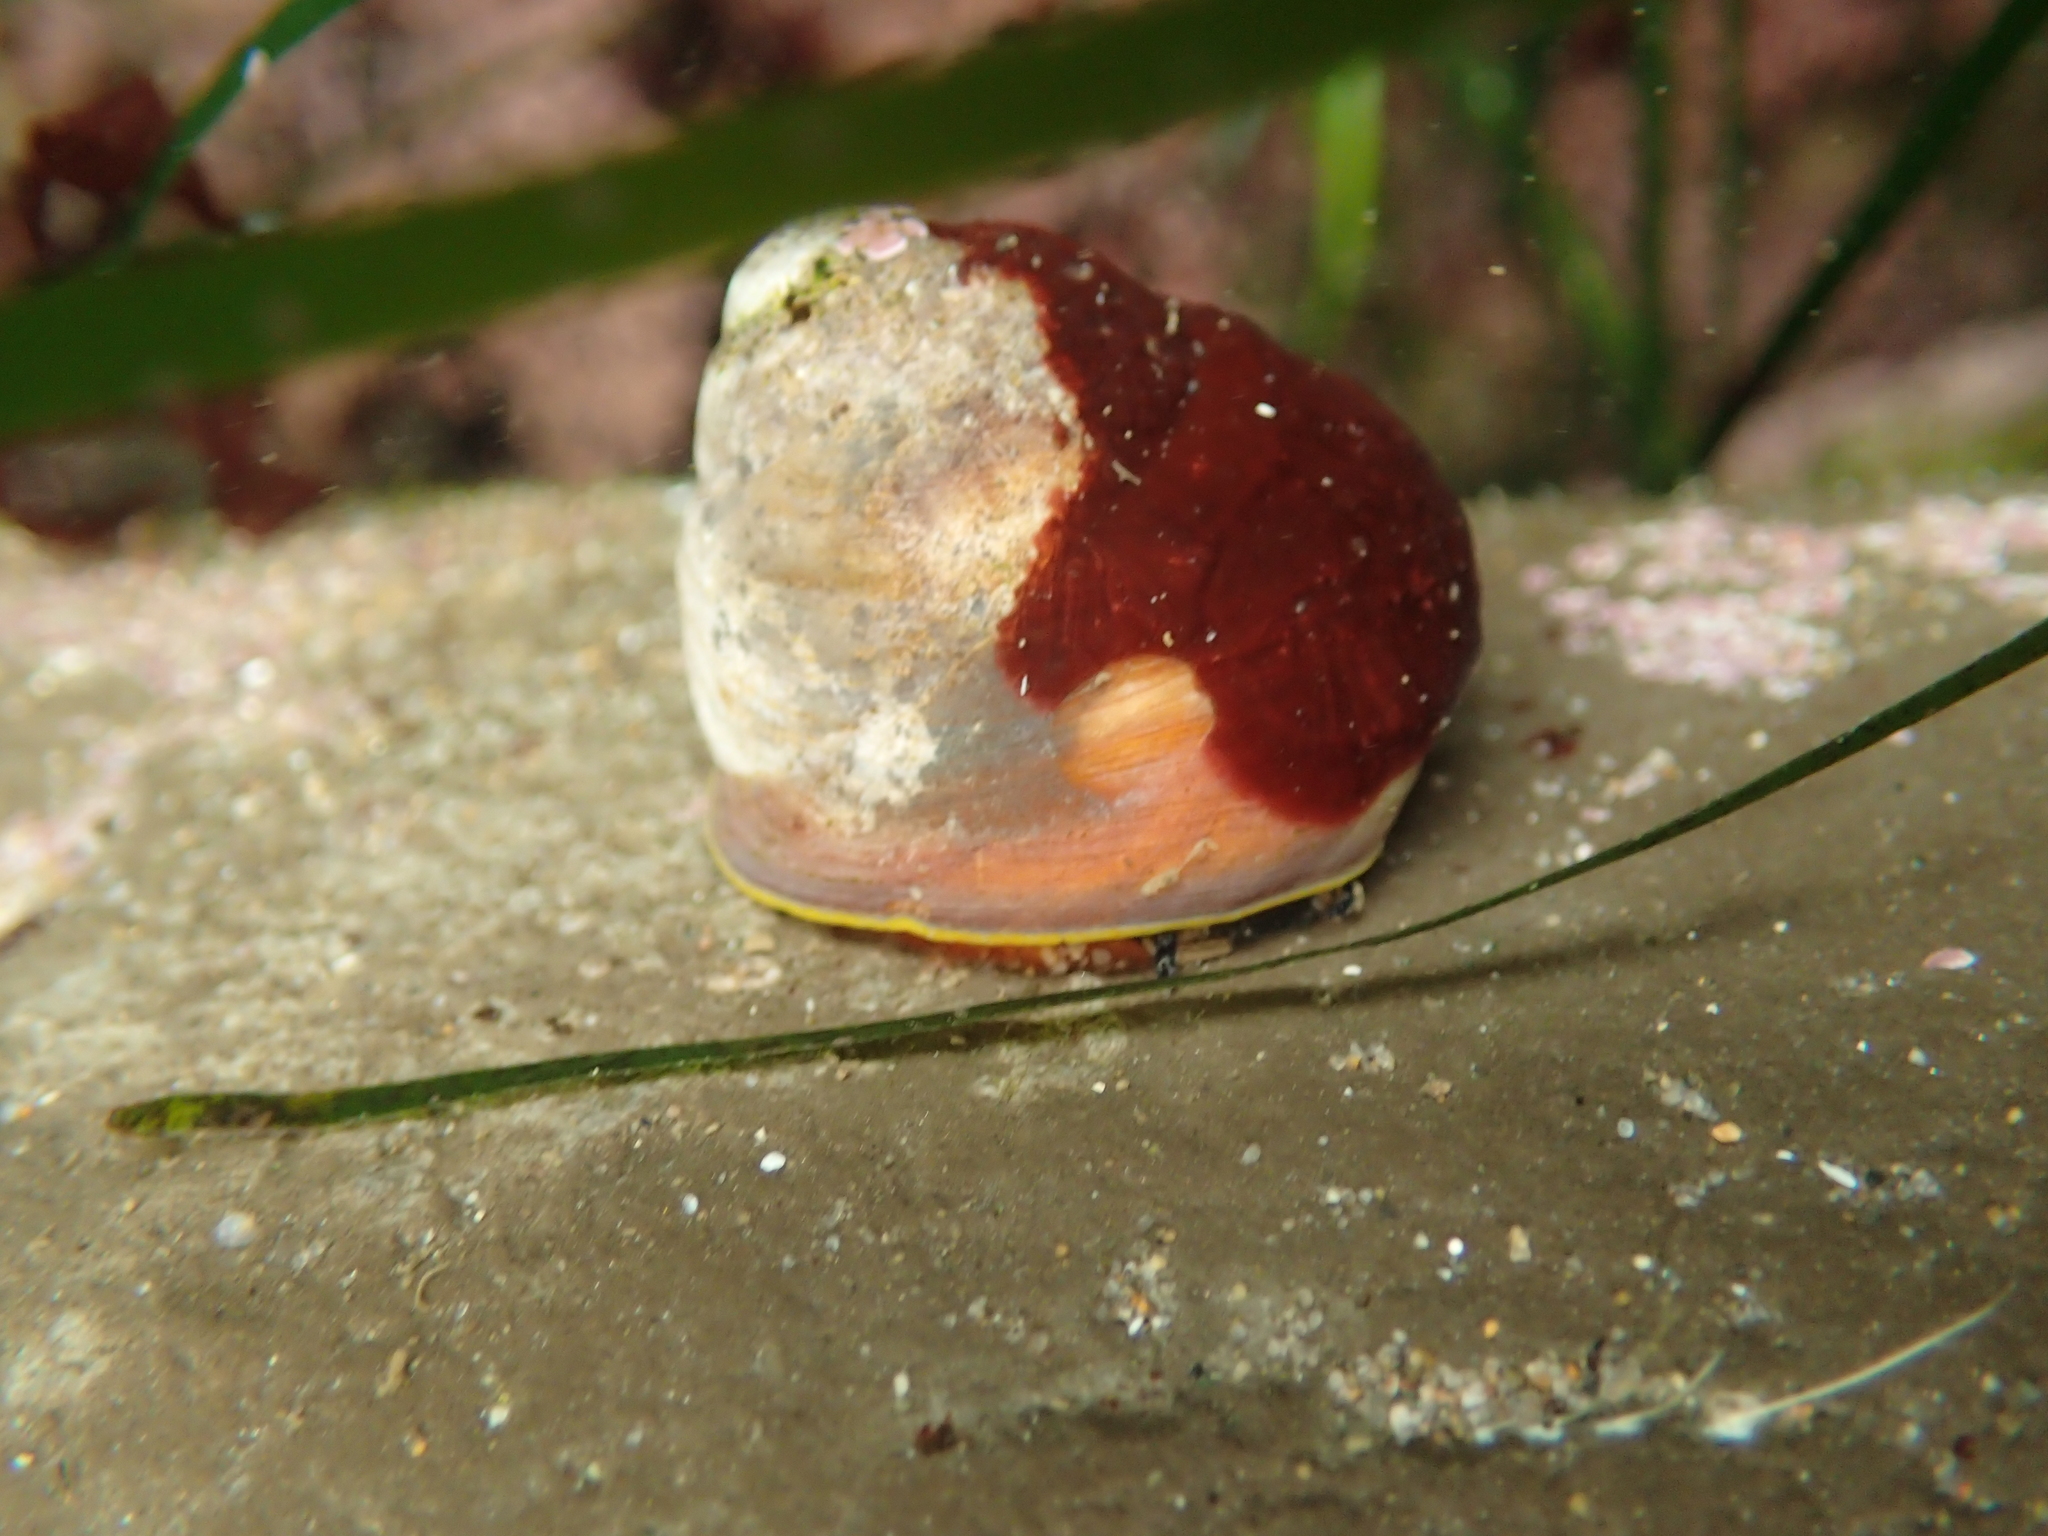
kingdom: Animalia
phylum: Mollusca
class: Gastropoda
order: Trochida
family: Tegulidae
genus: Tegula
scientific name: Tegula brunnea
